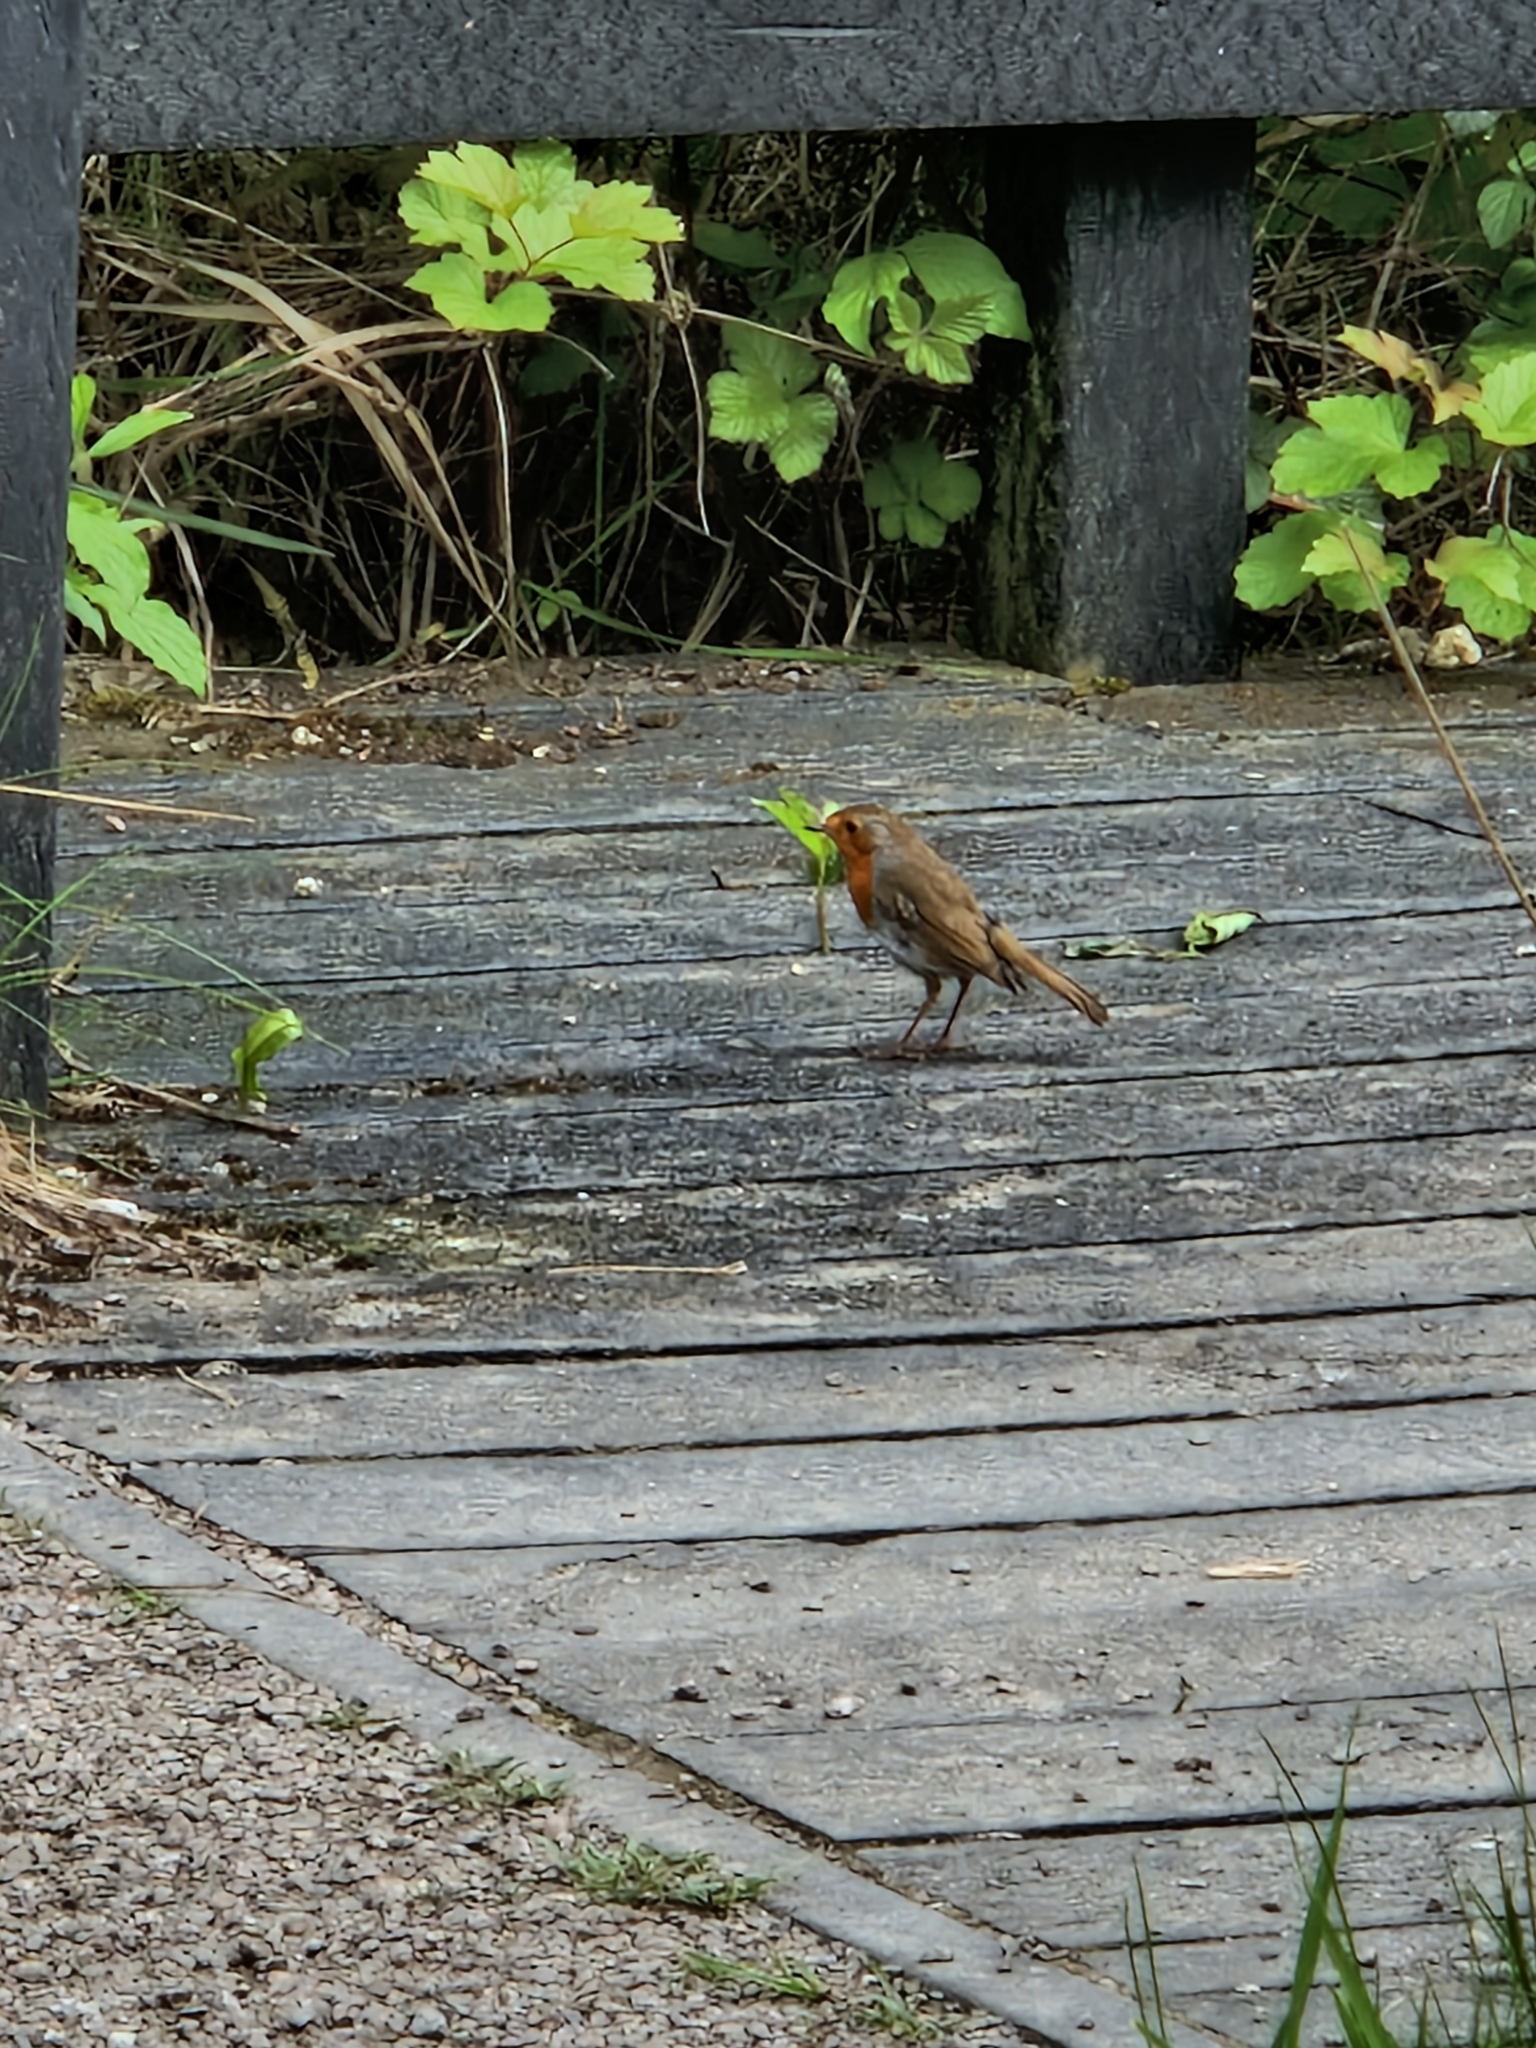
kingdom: Animalia
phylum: Chordata
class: Aves
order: Passeriformes
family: Muscicapidae
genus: Erithacus
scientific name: Erithacus rubecula
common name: European robin
